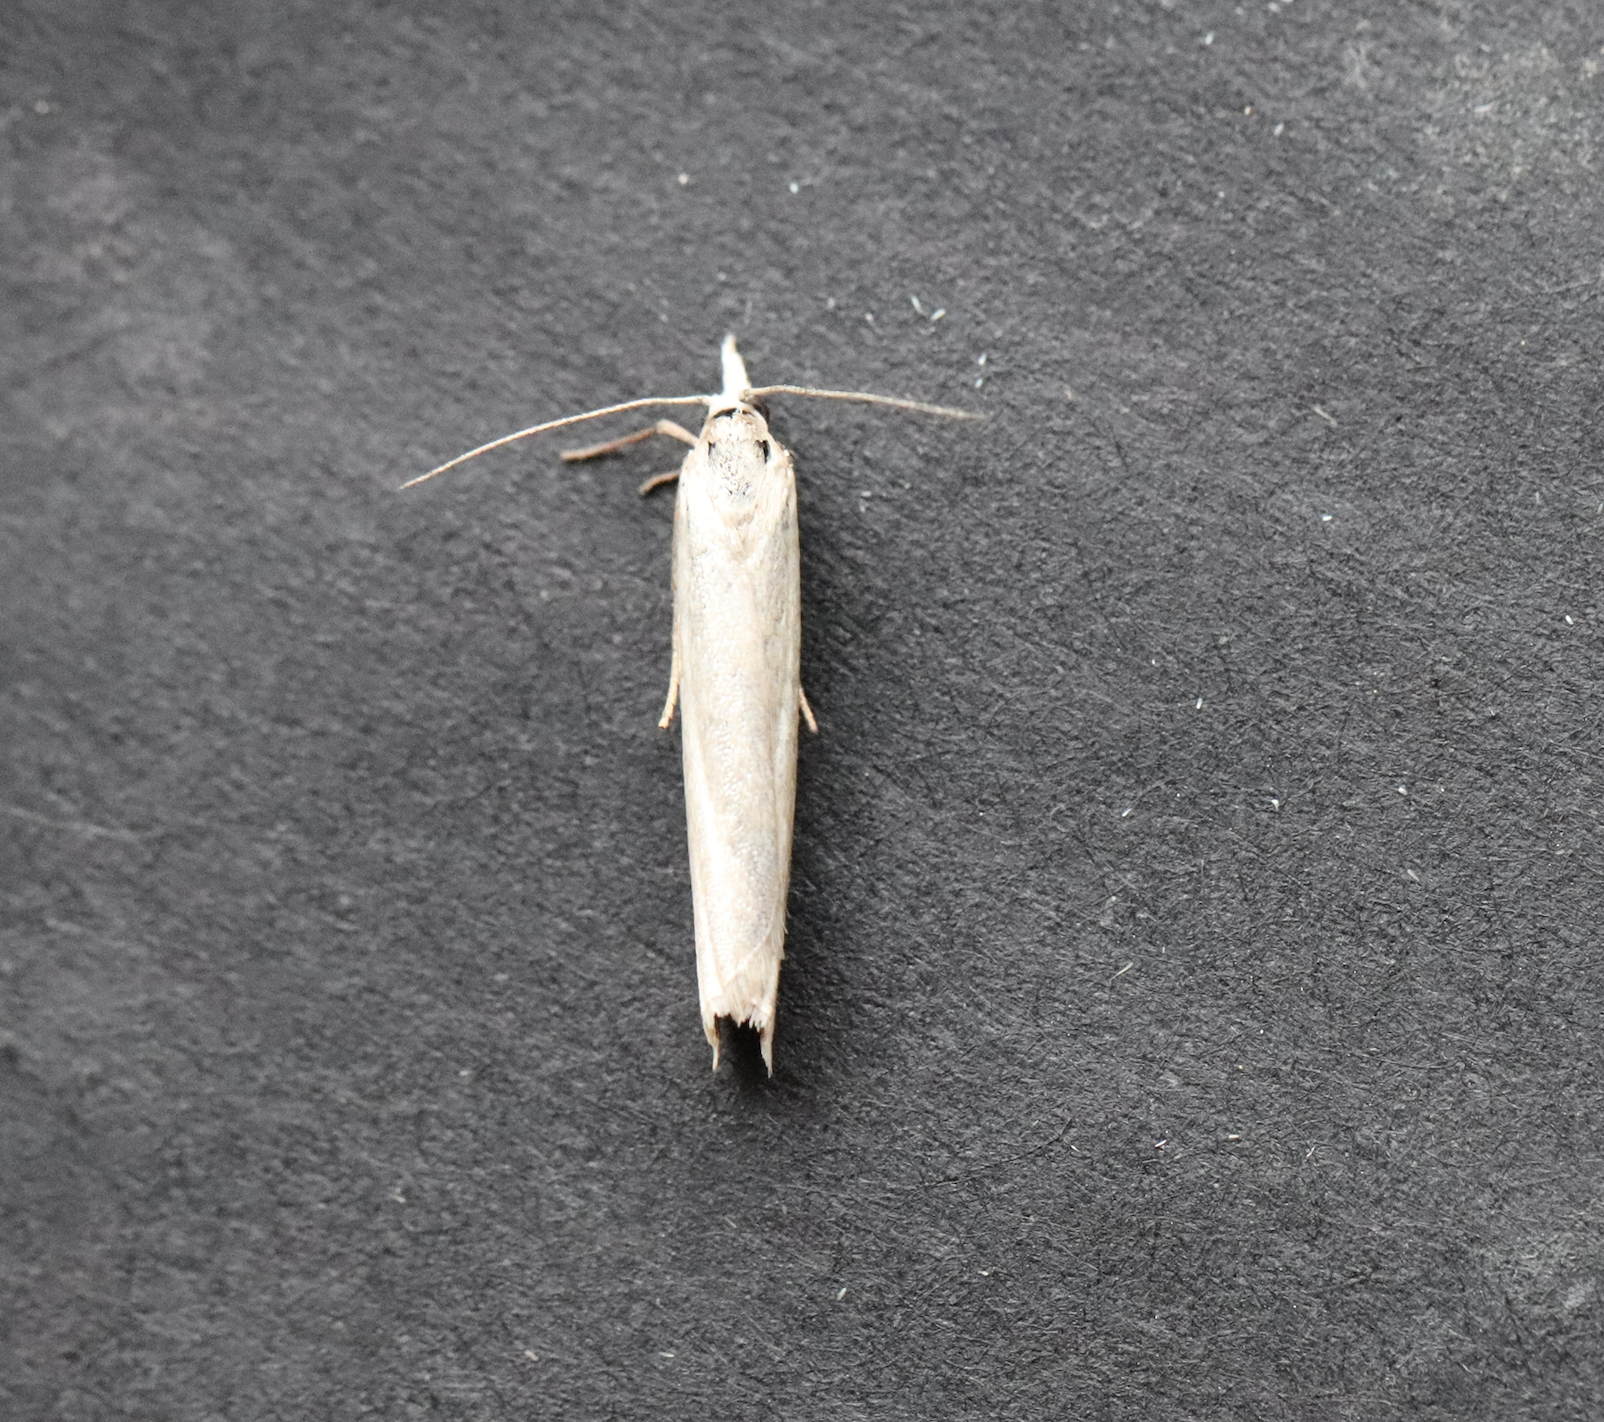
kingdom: Animalia
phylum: Arthropoda
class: Insecta
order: Lepidoptera
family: Crambidae
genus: Crambus
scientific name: Crambus perlellus
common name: Yellow satin veneer
